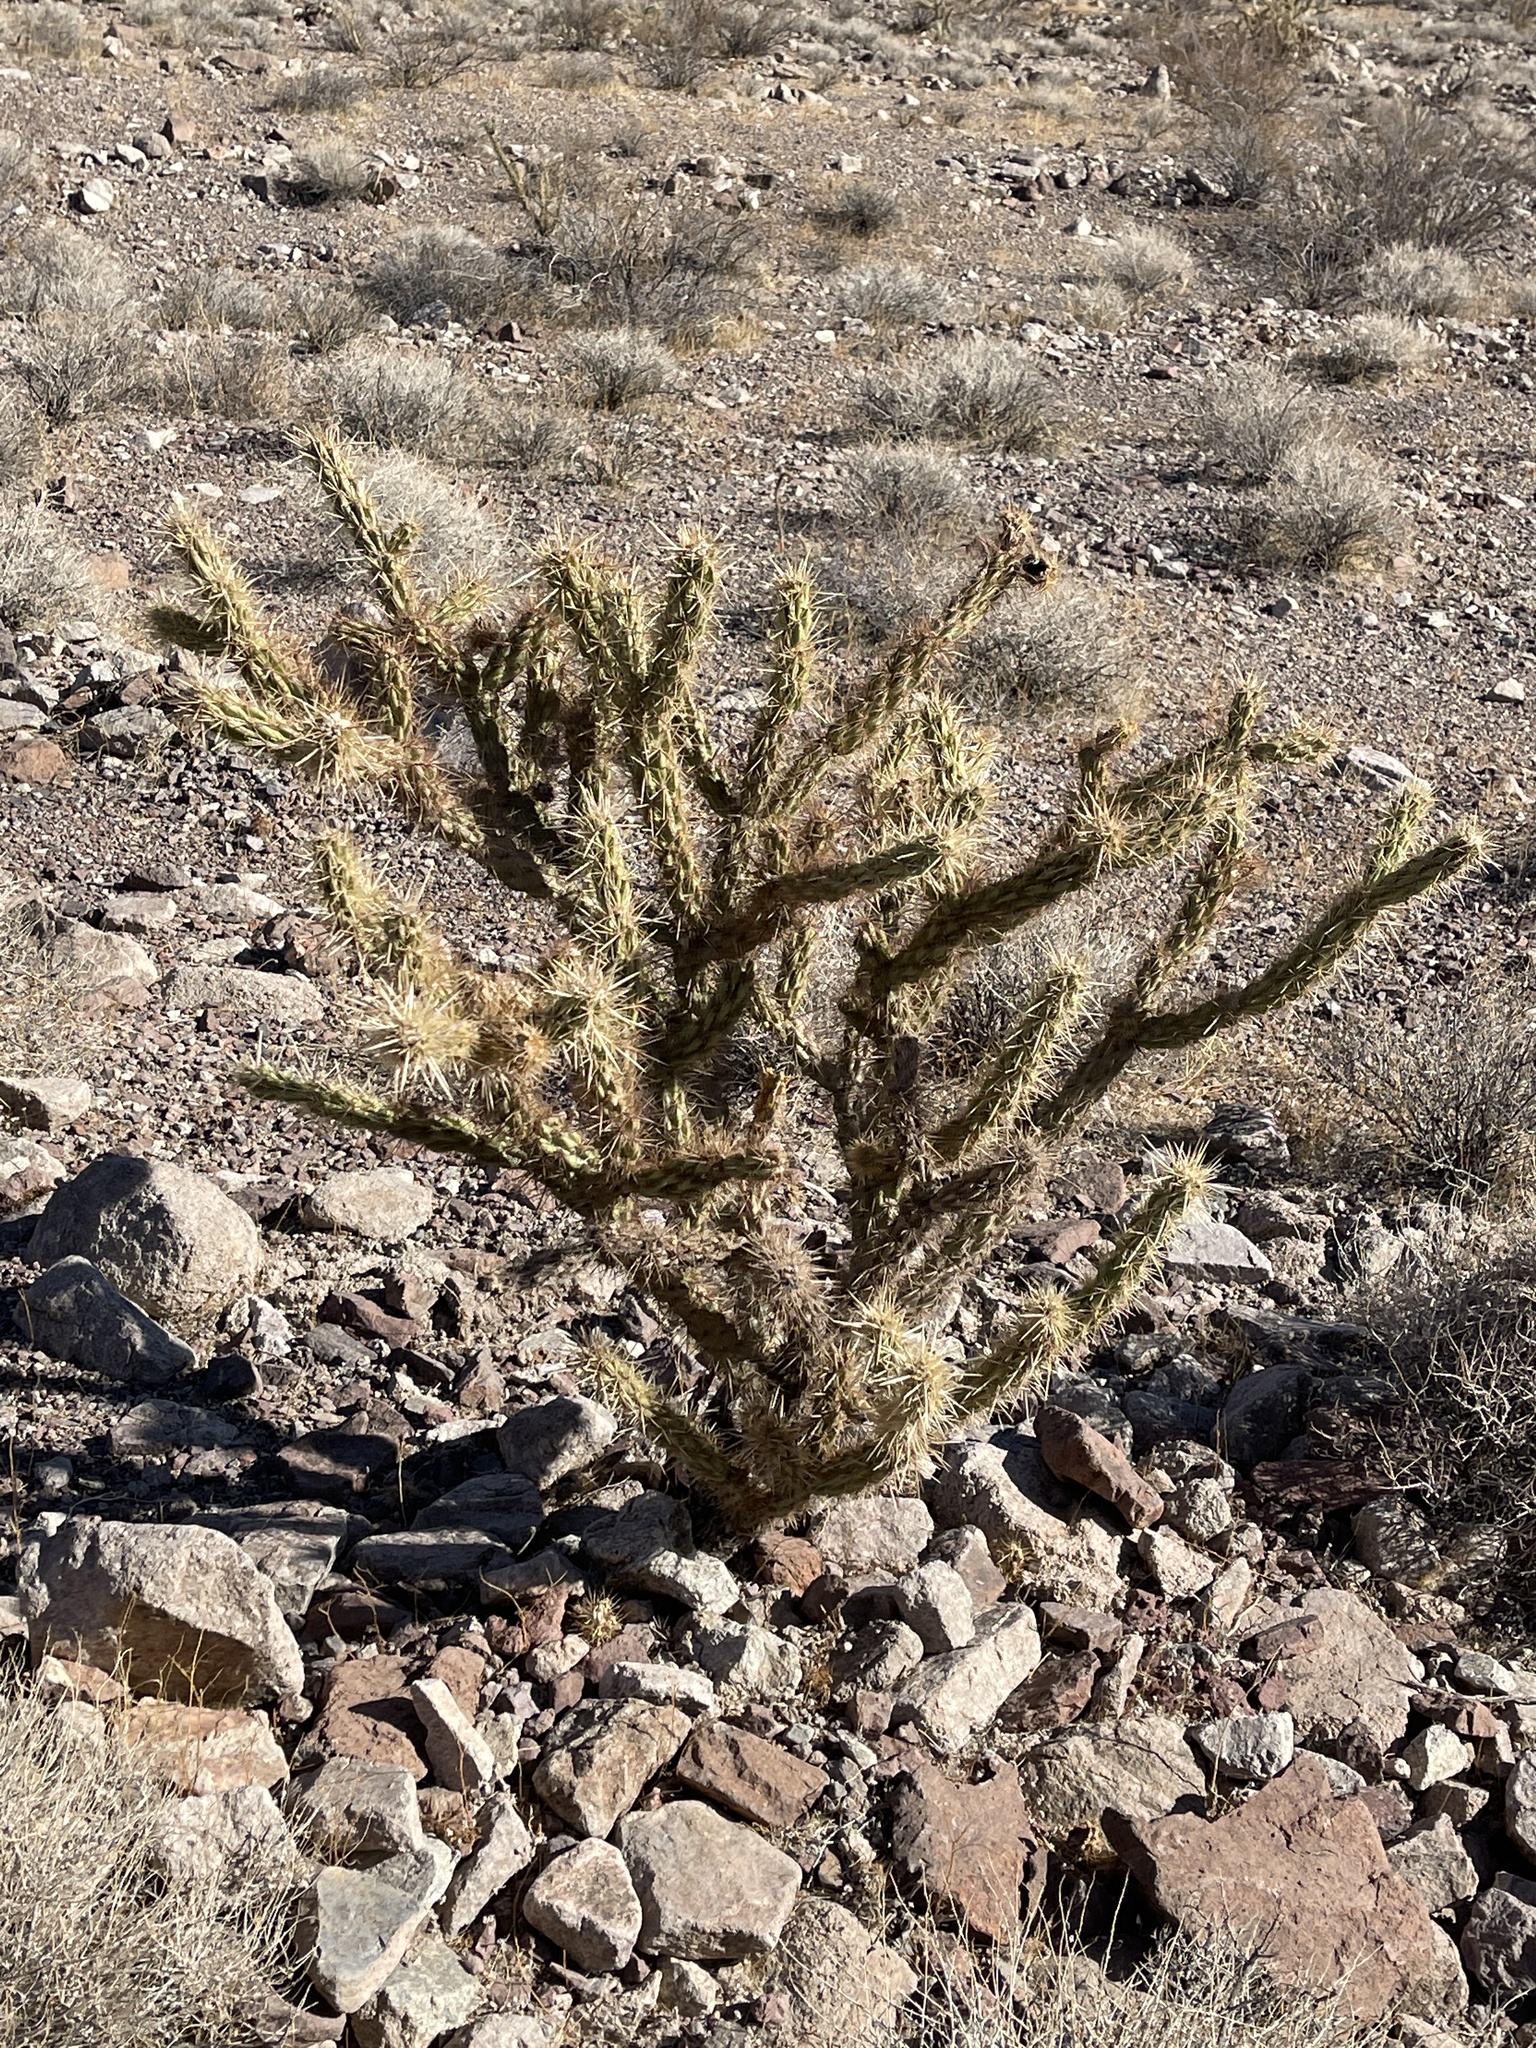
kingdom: Plantae
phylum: Tracheophyta
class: Magnoliopsida
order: Caryophyllales
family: Cactaceae
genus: Cylindropuntia
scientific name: Cylindropuntia acanthocarpa
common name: Buckhorn cholla
